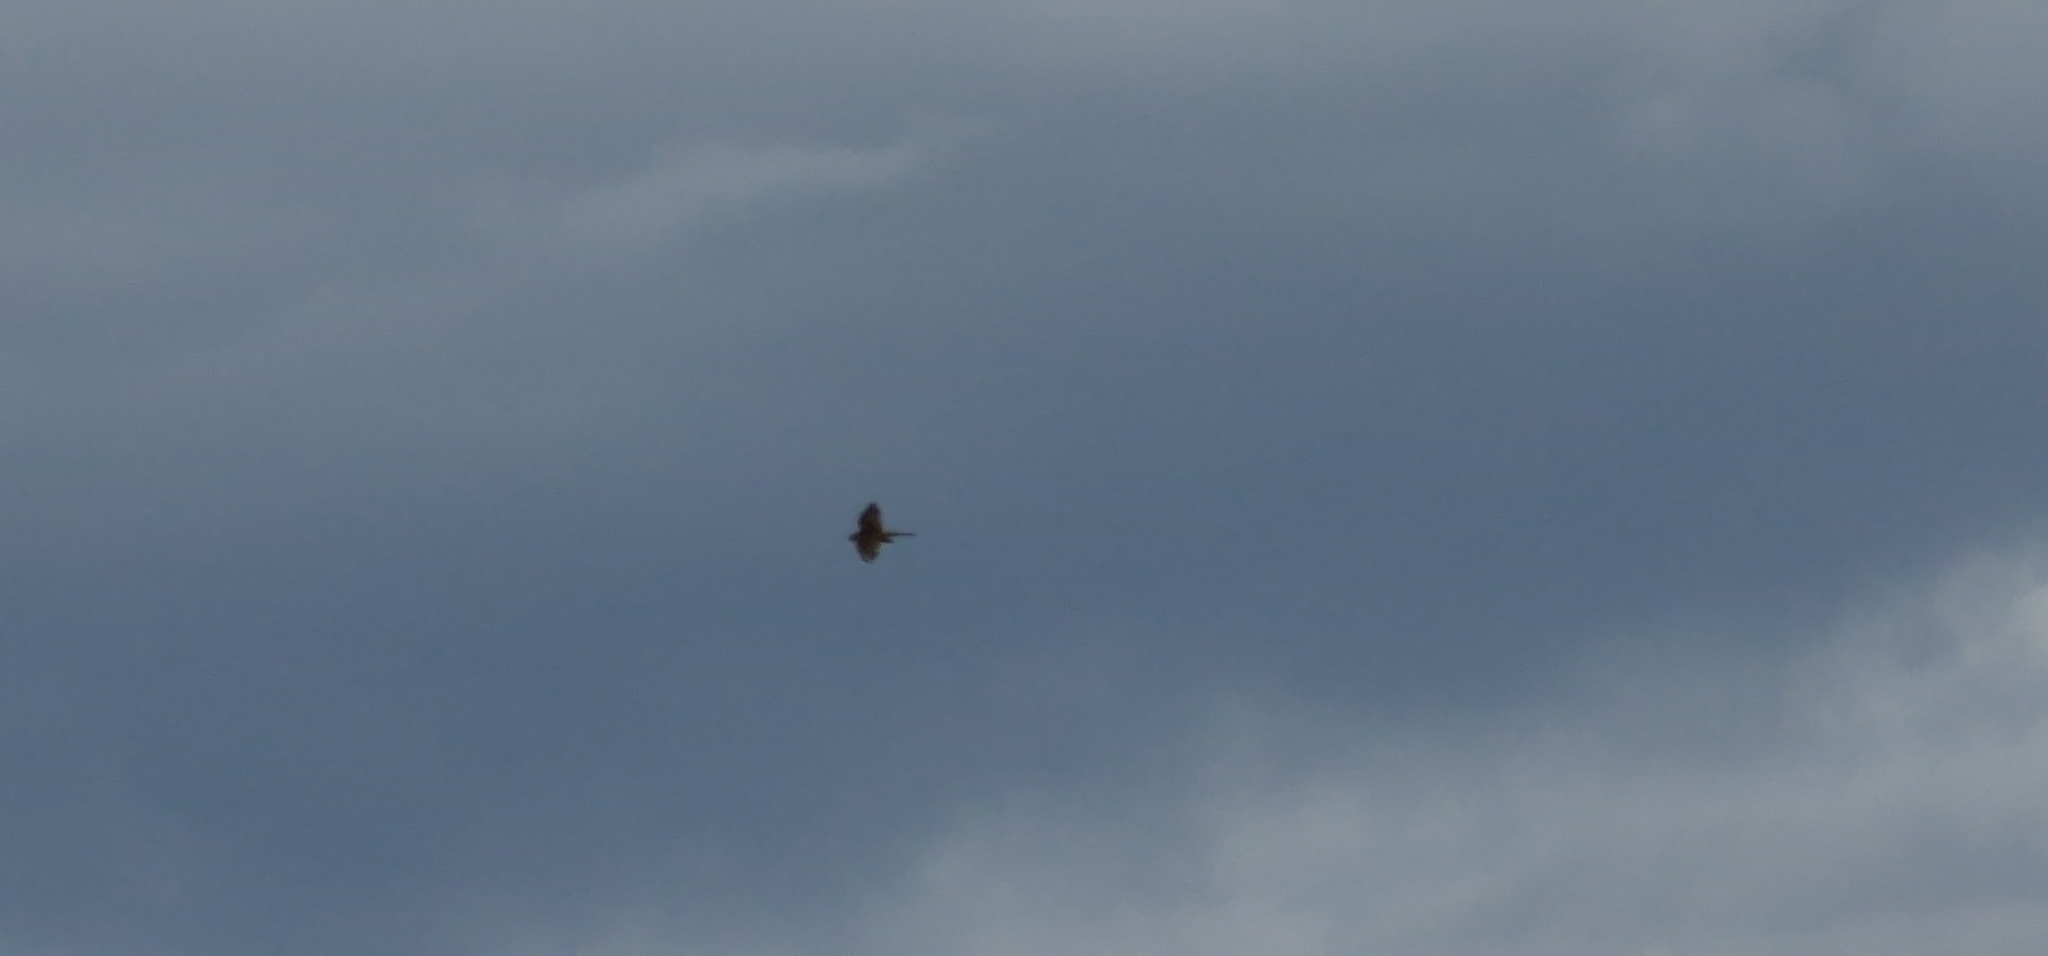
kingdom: Animalia
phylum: Chordata
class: Aves
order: Falconiformes
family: Falconidae
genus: Falco
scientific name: Falco tinnunculus
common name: Common kestrel
